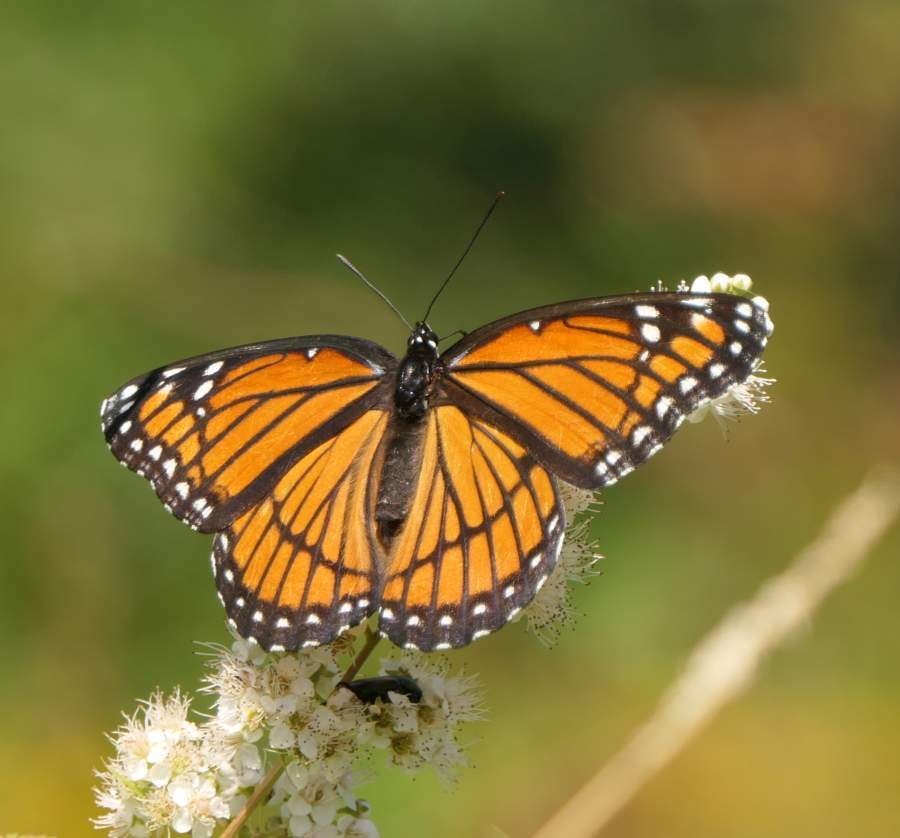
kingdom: Animalia
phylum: Arthropoda
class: Insecta
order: Lepidoptera
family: Nymphalidae
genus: Limenitis
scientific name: Limenitis archippus
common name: Viceroy
